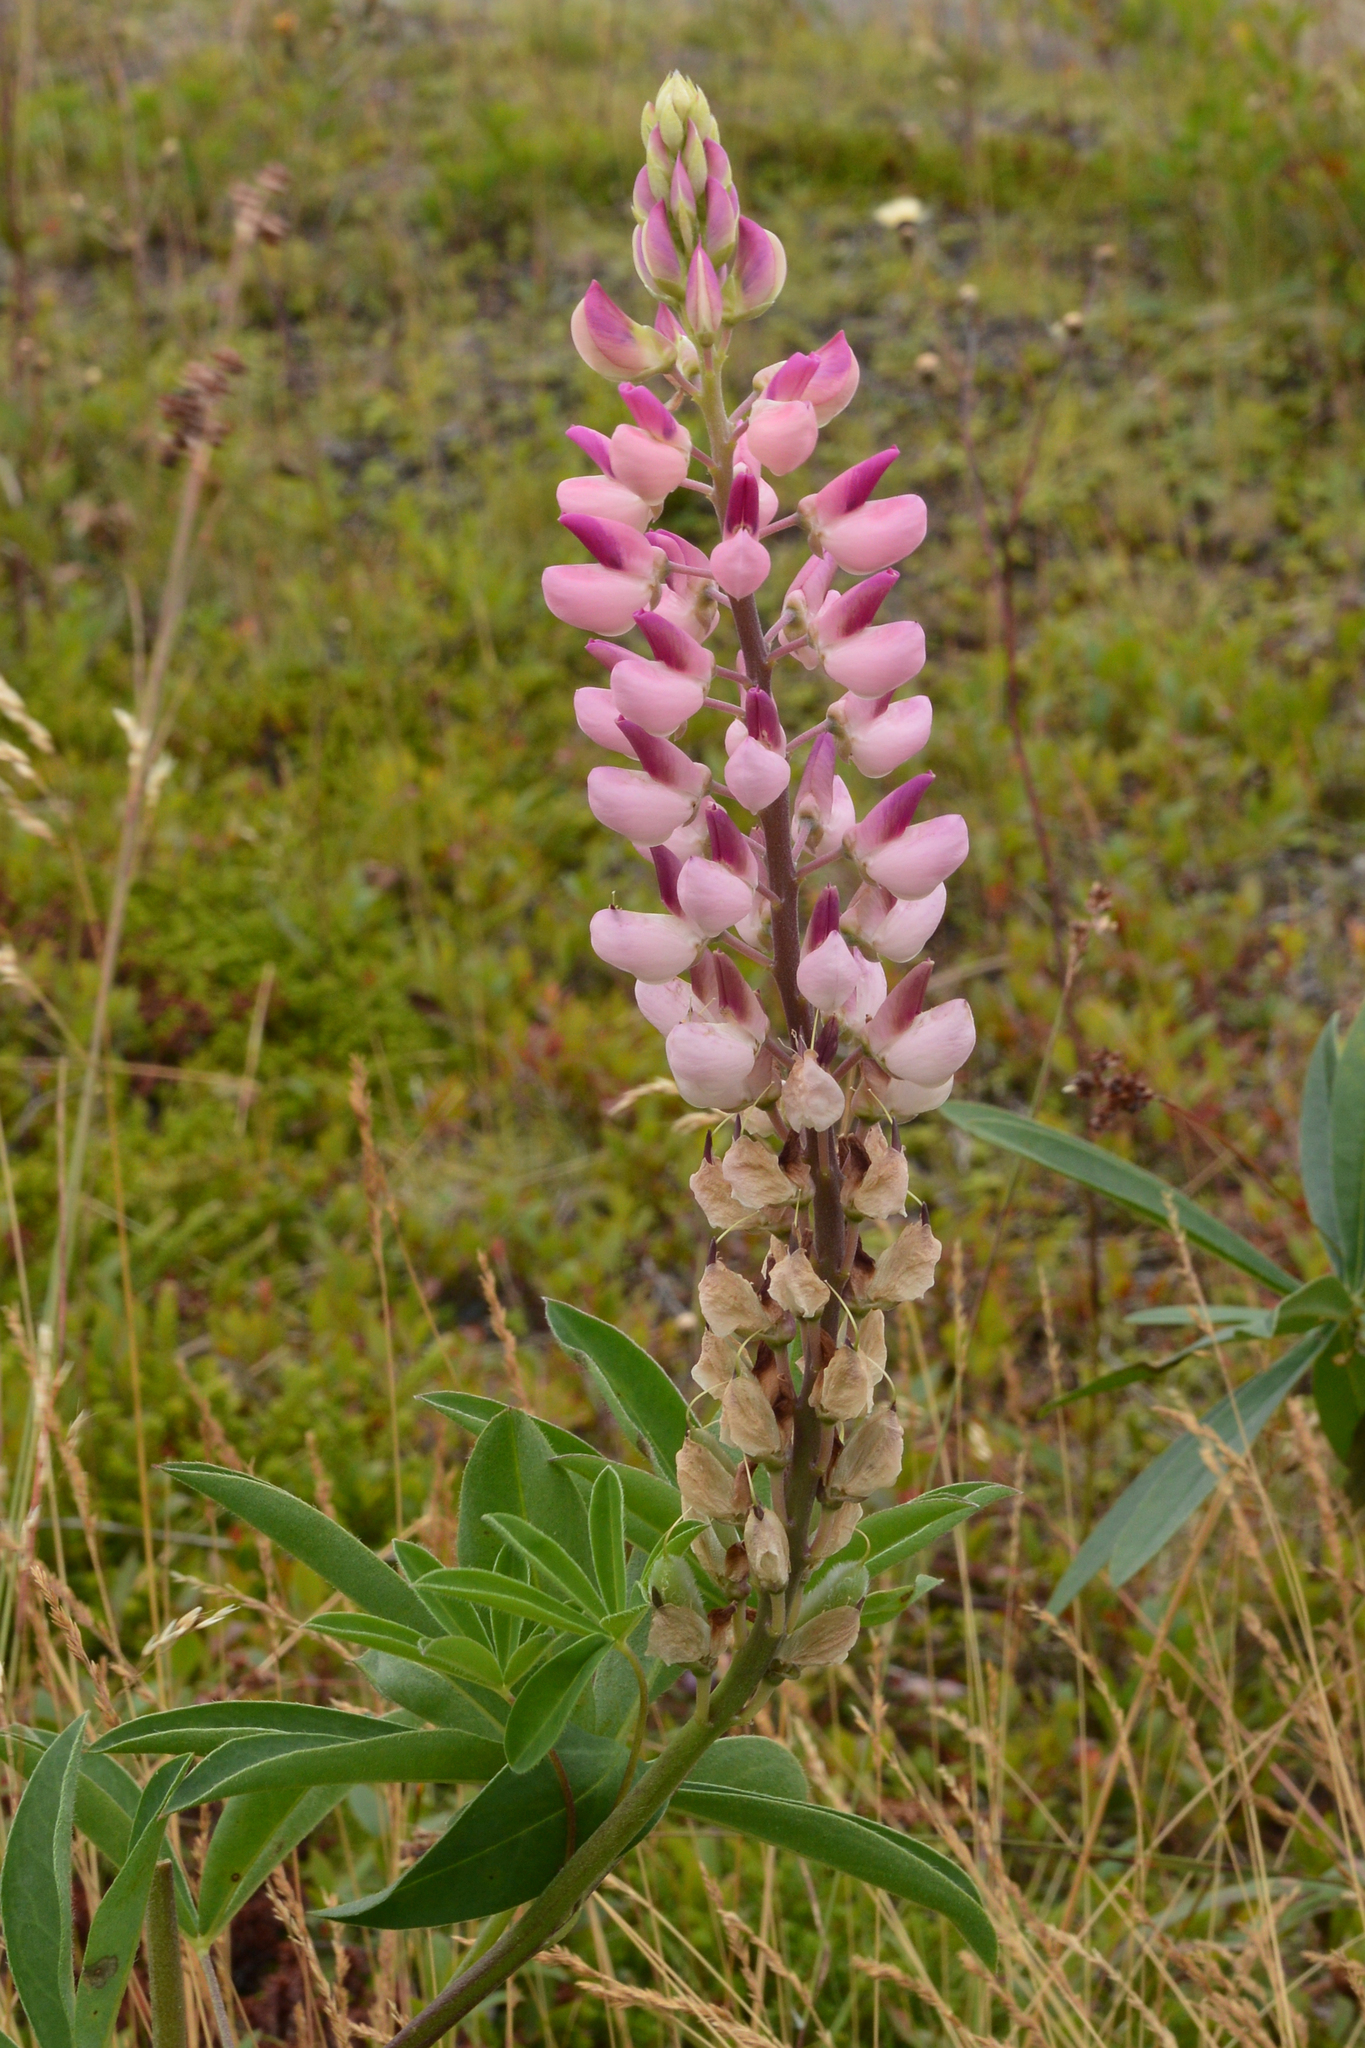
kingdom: Plantae
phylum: Tracheophyta
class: Magnoliopsida
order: Fabales
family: Fabaceae
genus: Lupinus
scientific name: Lupinus polyphyllus
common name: Garden lupin
